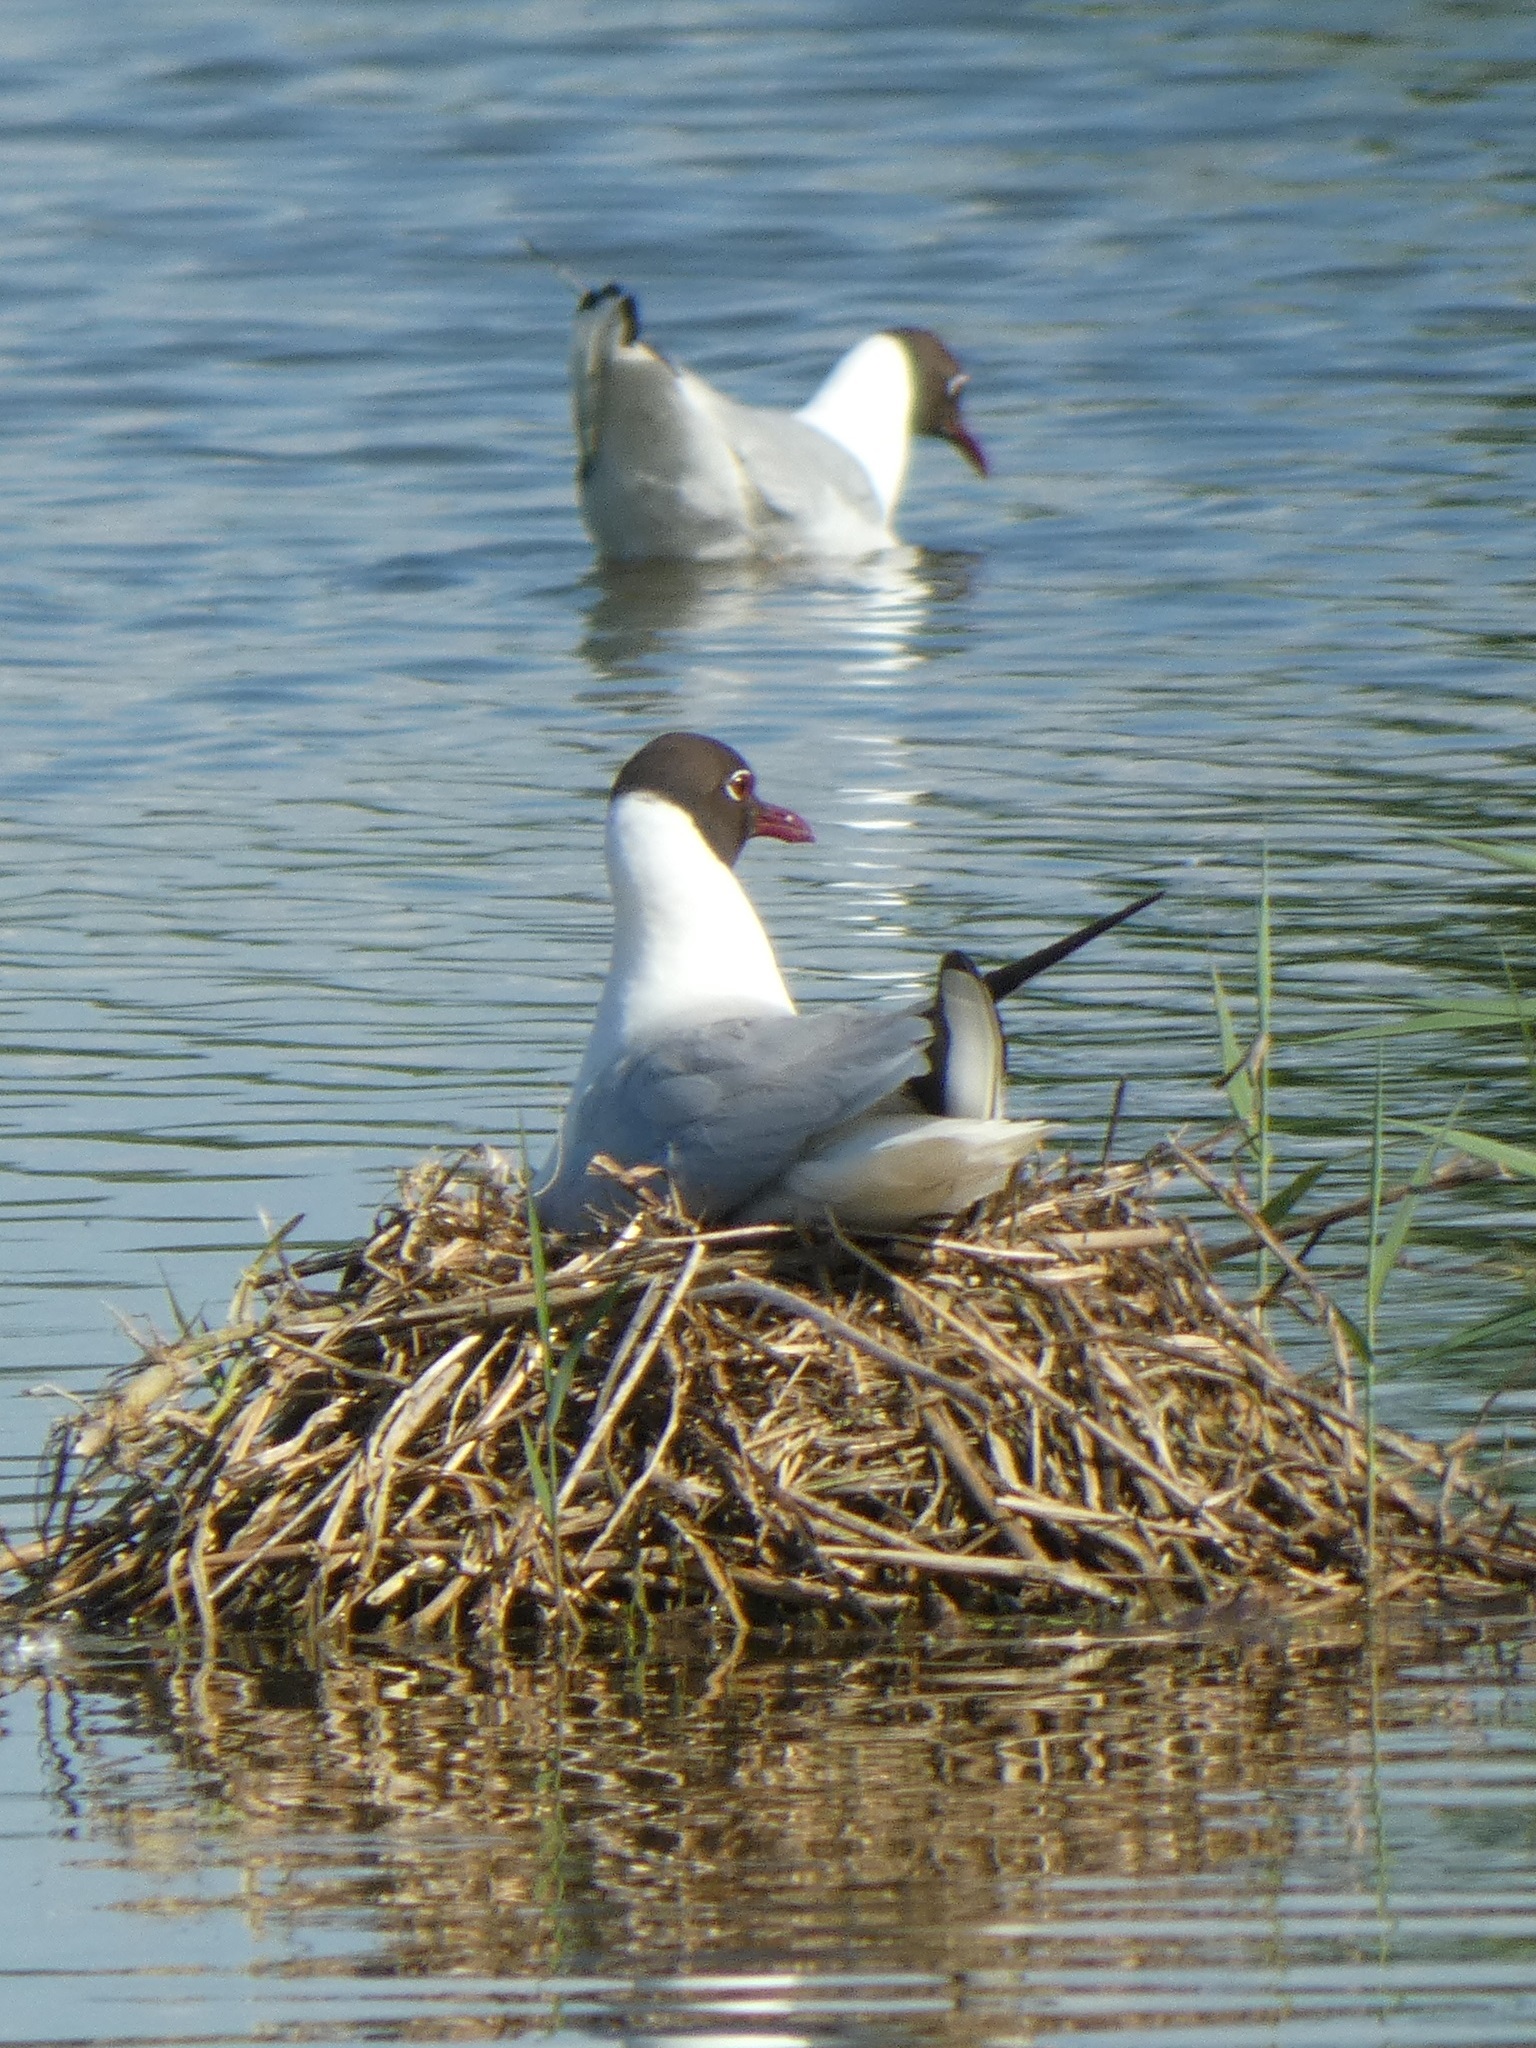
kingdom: Animalia
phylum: Chordata
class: Aves
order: Charadriiformes
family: Laridae
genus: Chroicocephalus
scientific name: Chroicocephalus ridibundus
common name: Black-headed gull
